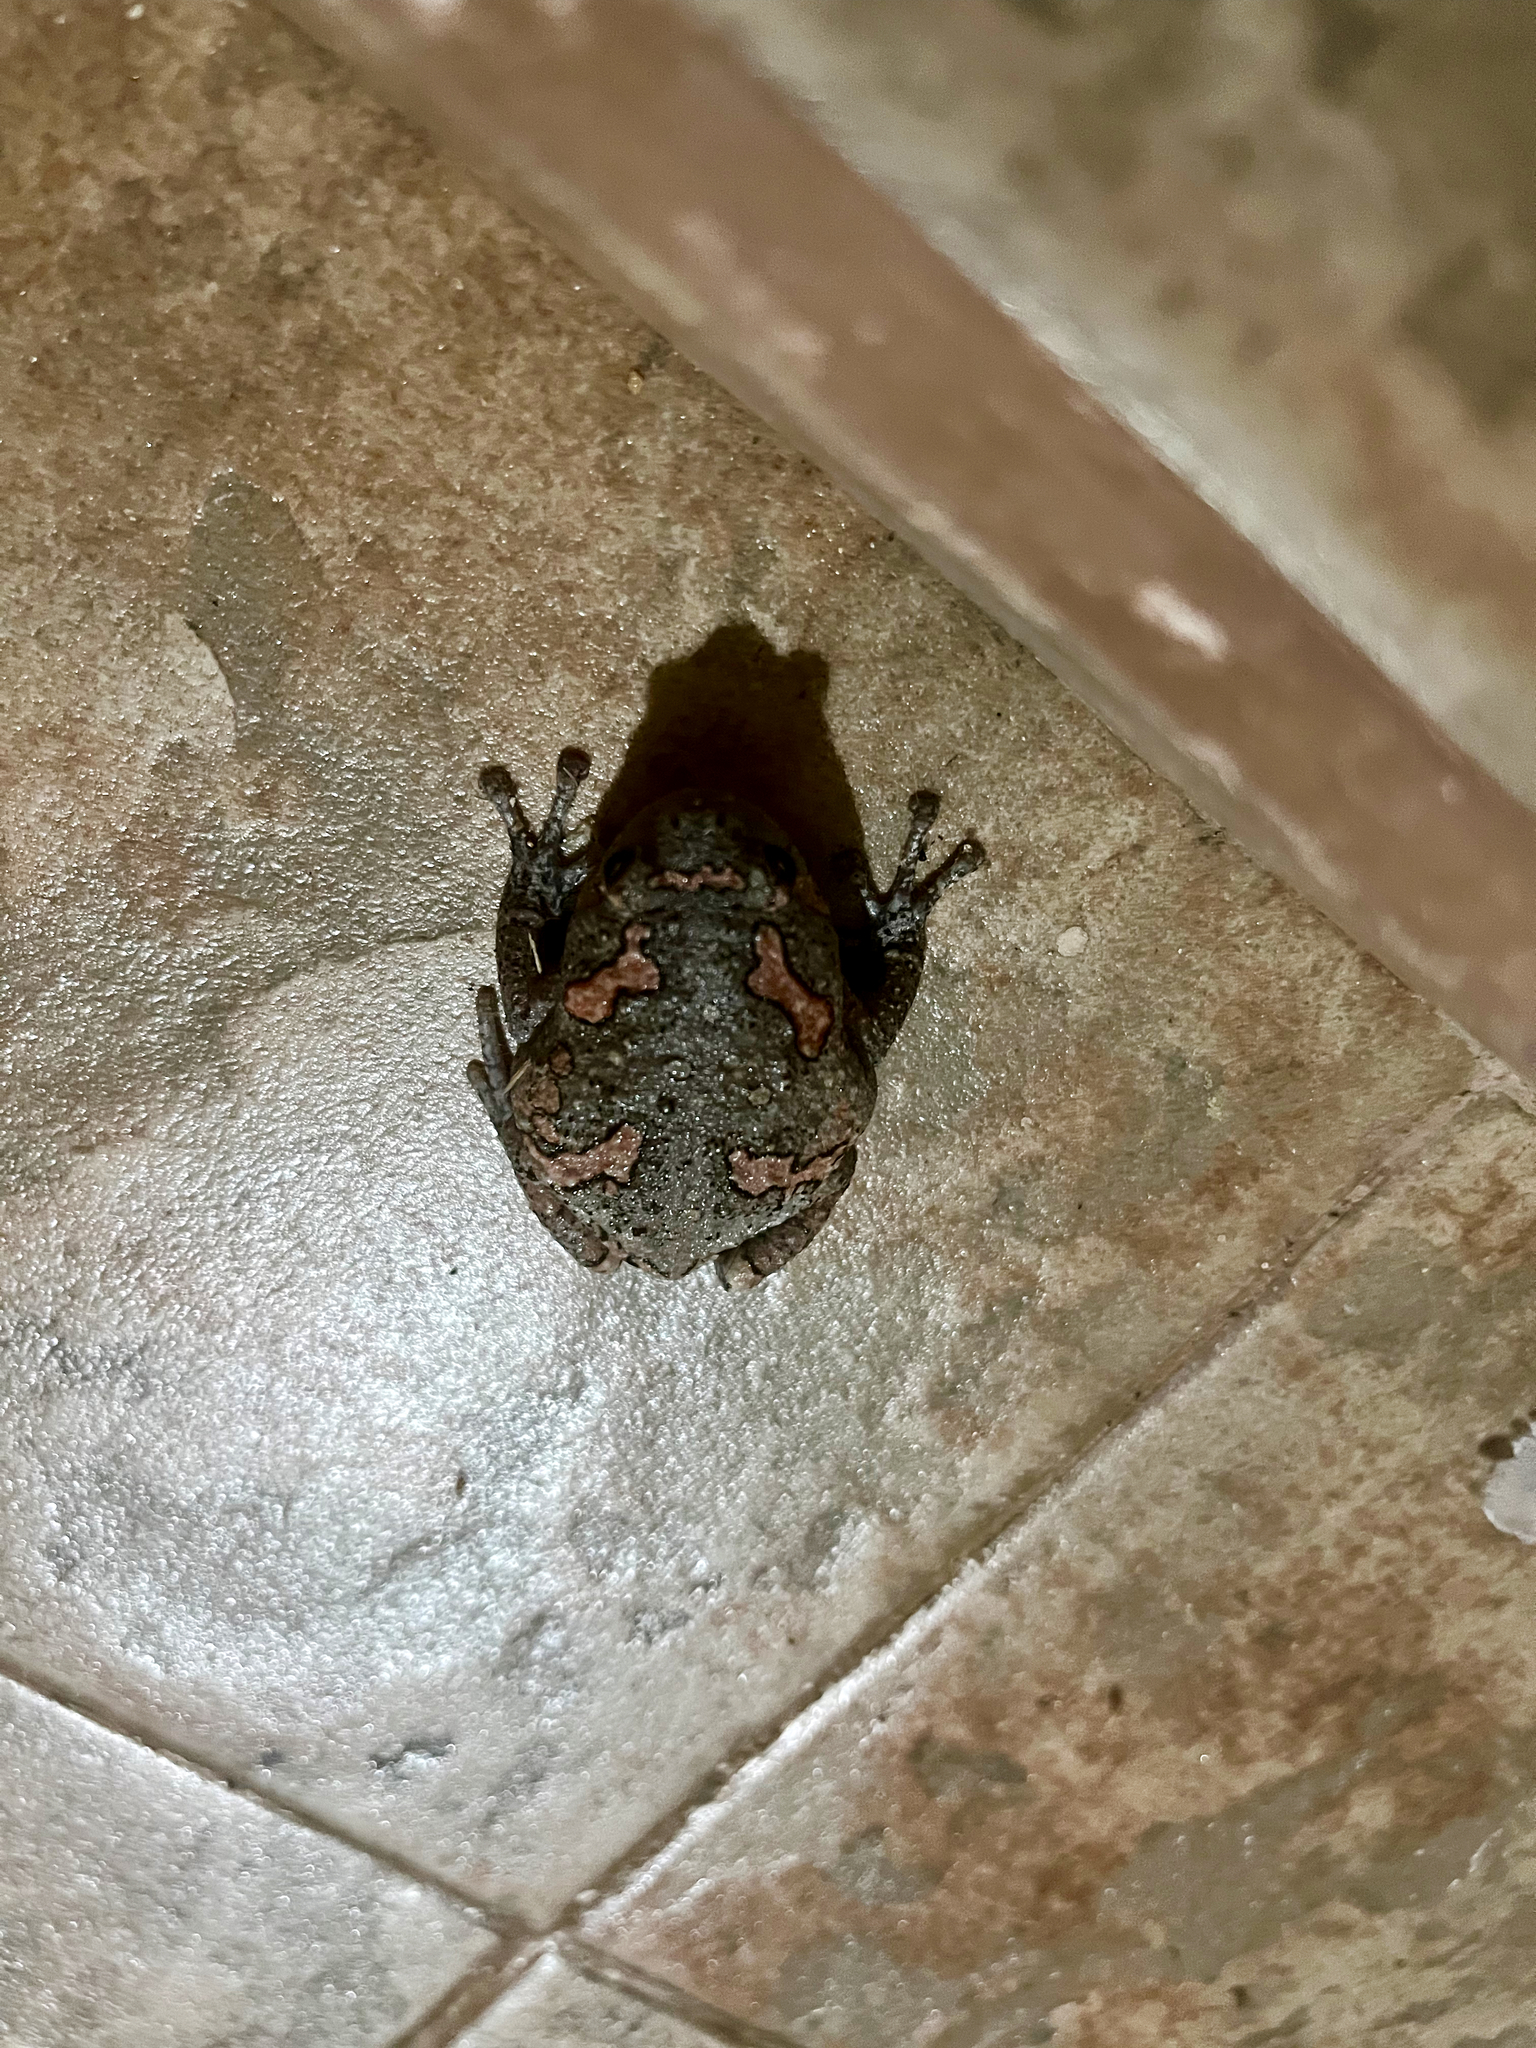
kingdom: Animalia
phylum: Chordata
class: Amphibia
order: Anura
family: Microhylidae
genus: Uperodon
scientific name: Uperodon taprobanicus
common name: Ceylon kaloula
